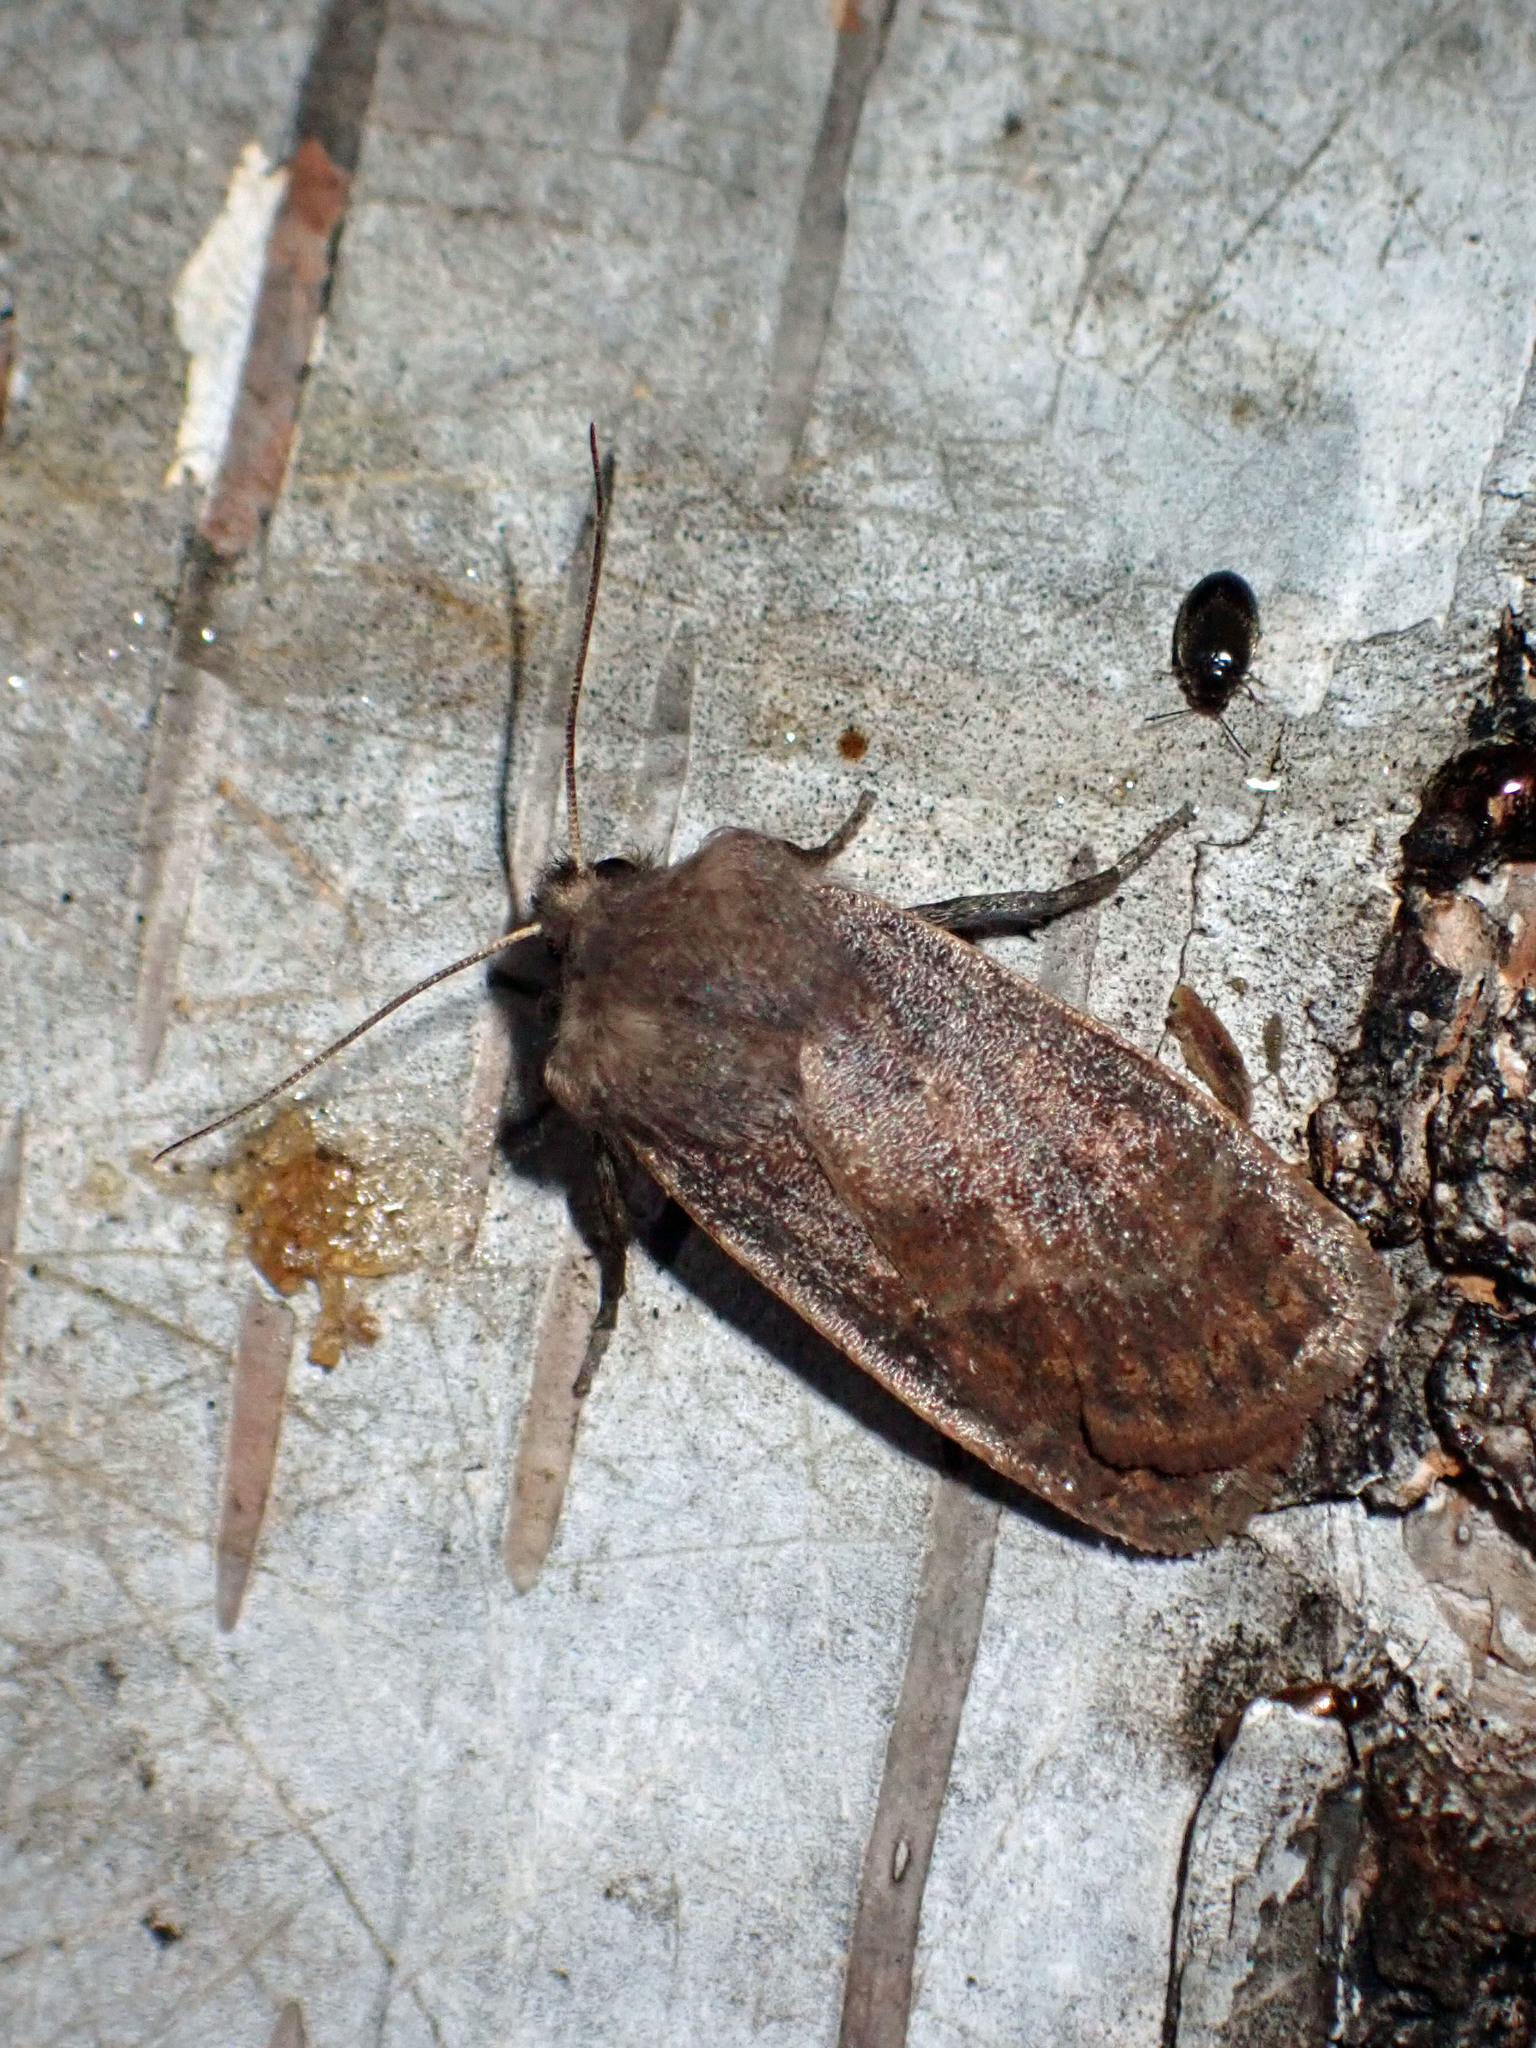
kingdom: Animalia
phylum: Arthropoda
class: Insecta
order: Lepidoptera
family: Noctuidae
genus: Homoglaea
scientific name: Homoglaea hircina
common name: Goat sallow
